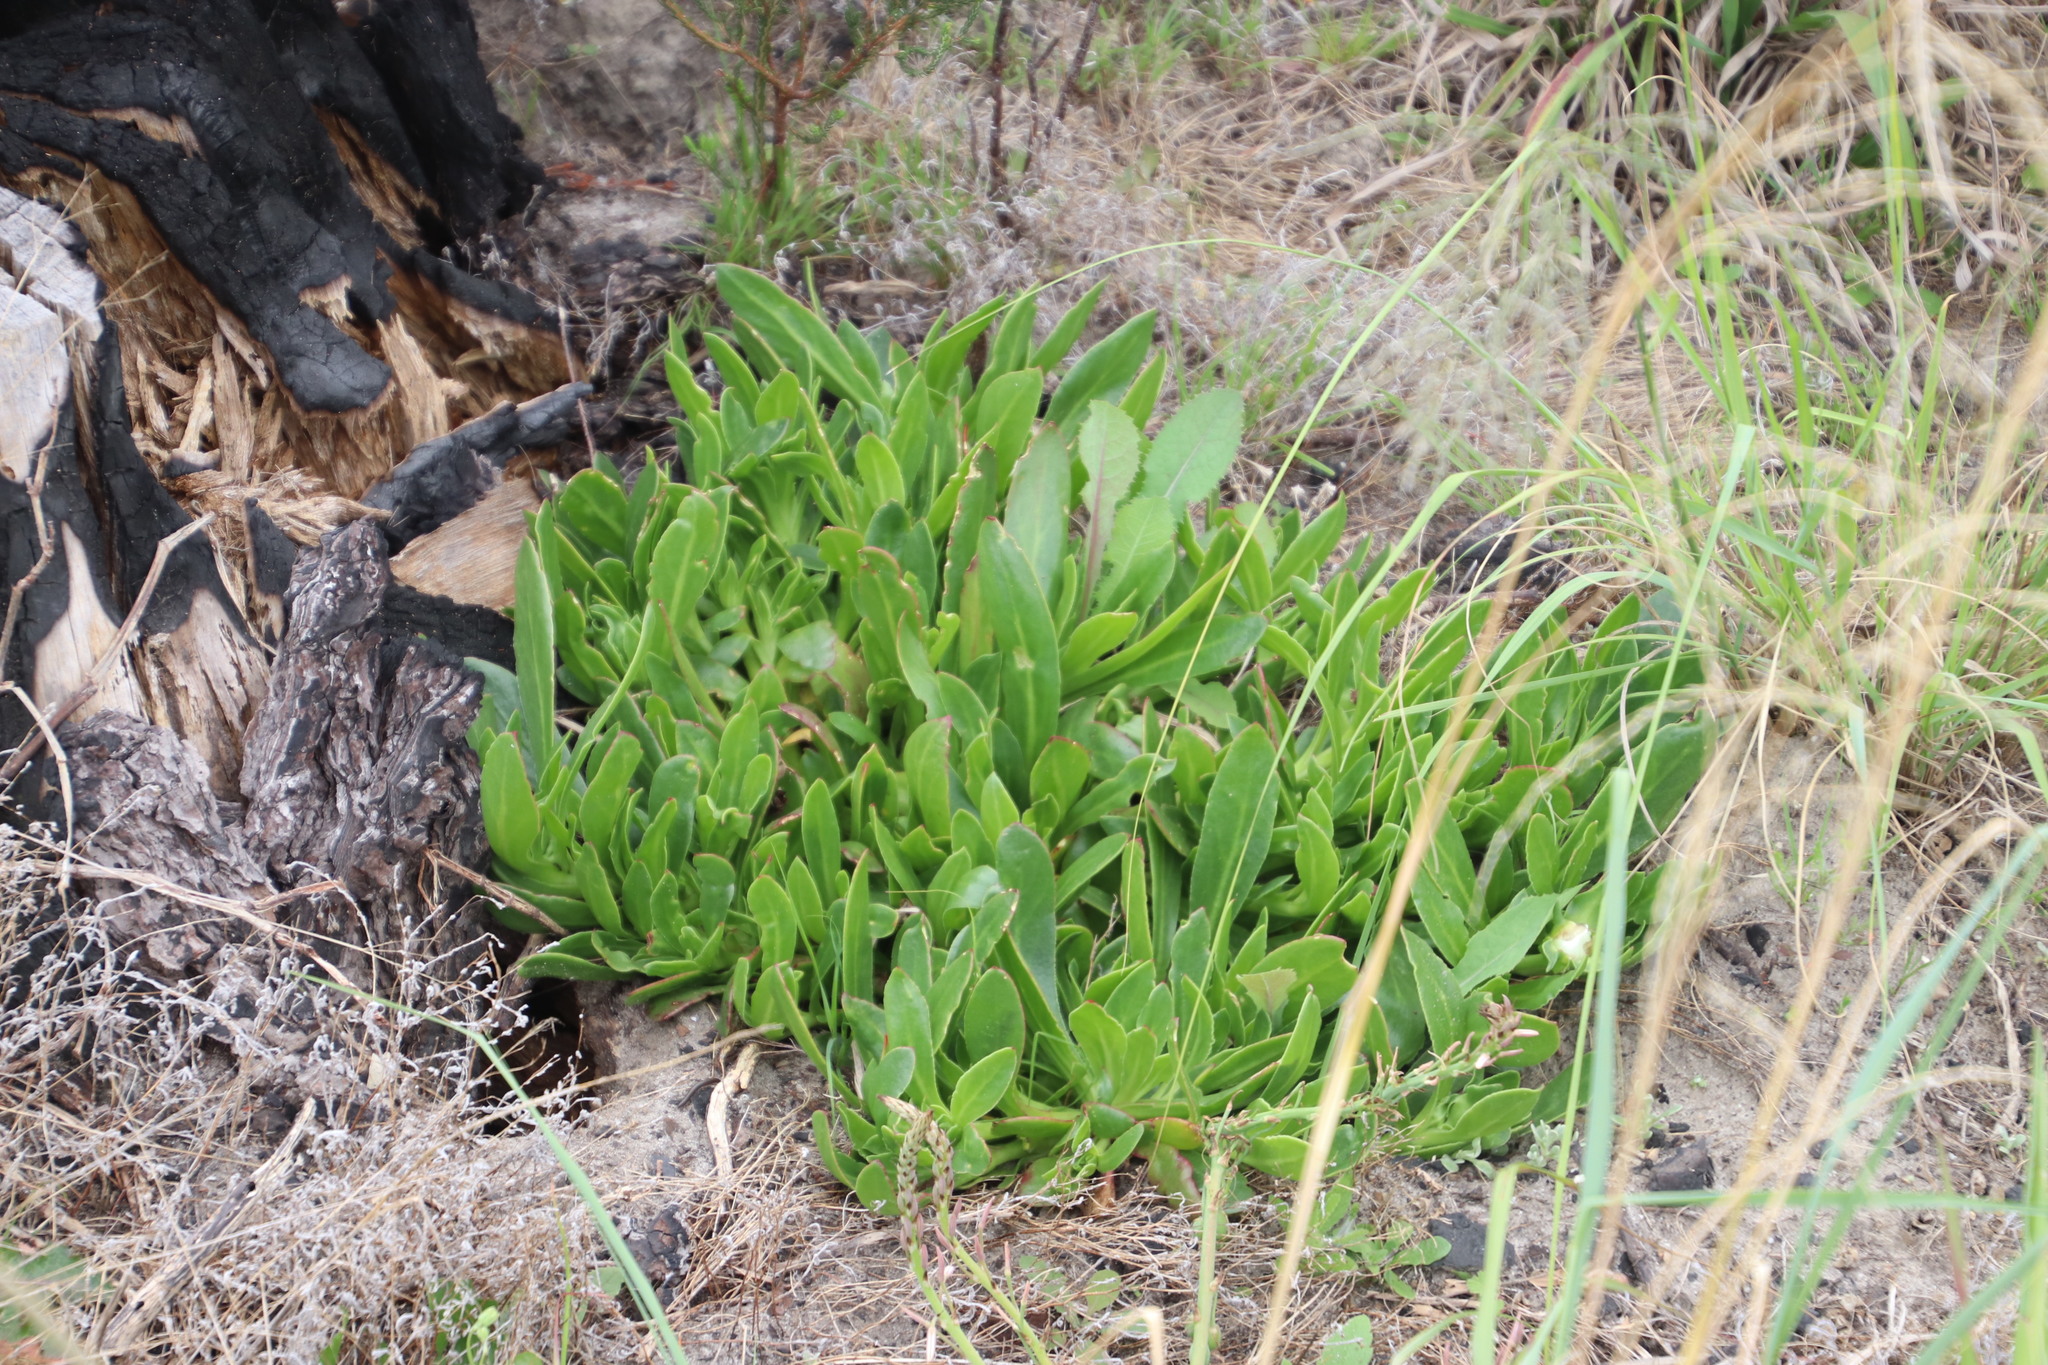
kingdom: Plantae
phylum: Tracheophyta
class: Magnoliopsida
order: Caryophyllales
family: Aizoaceae
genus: Skiatophytum
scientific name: Skiatophytum tripolium
